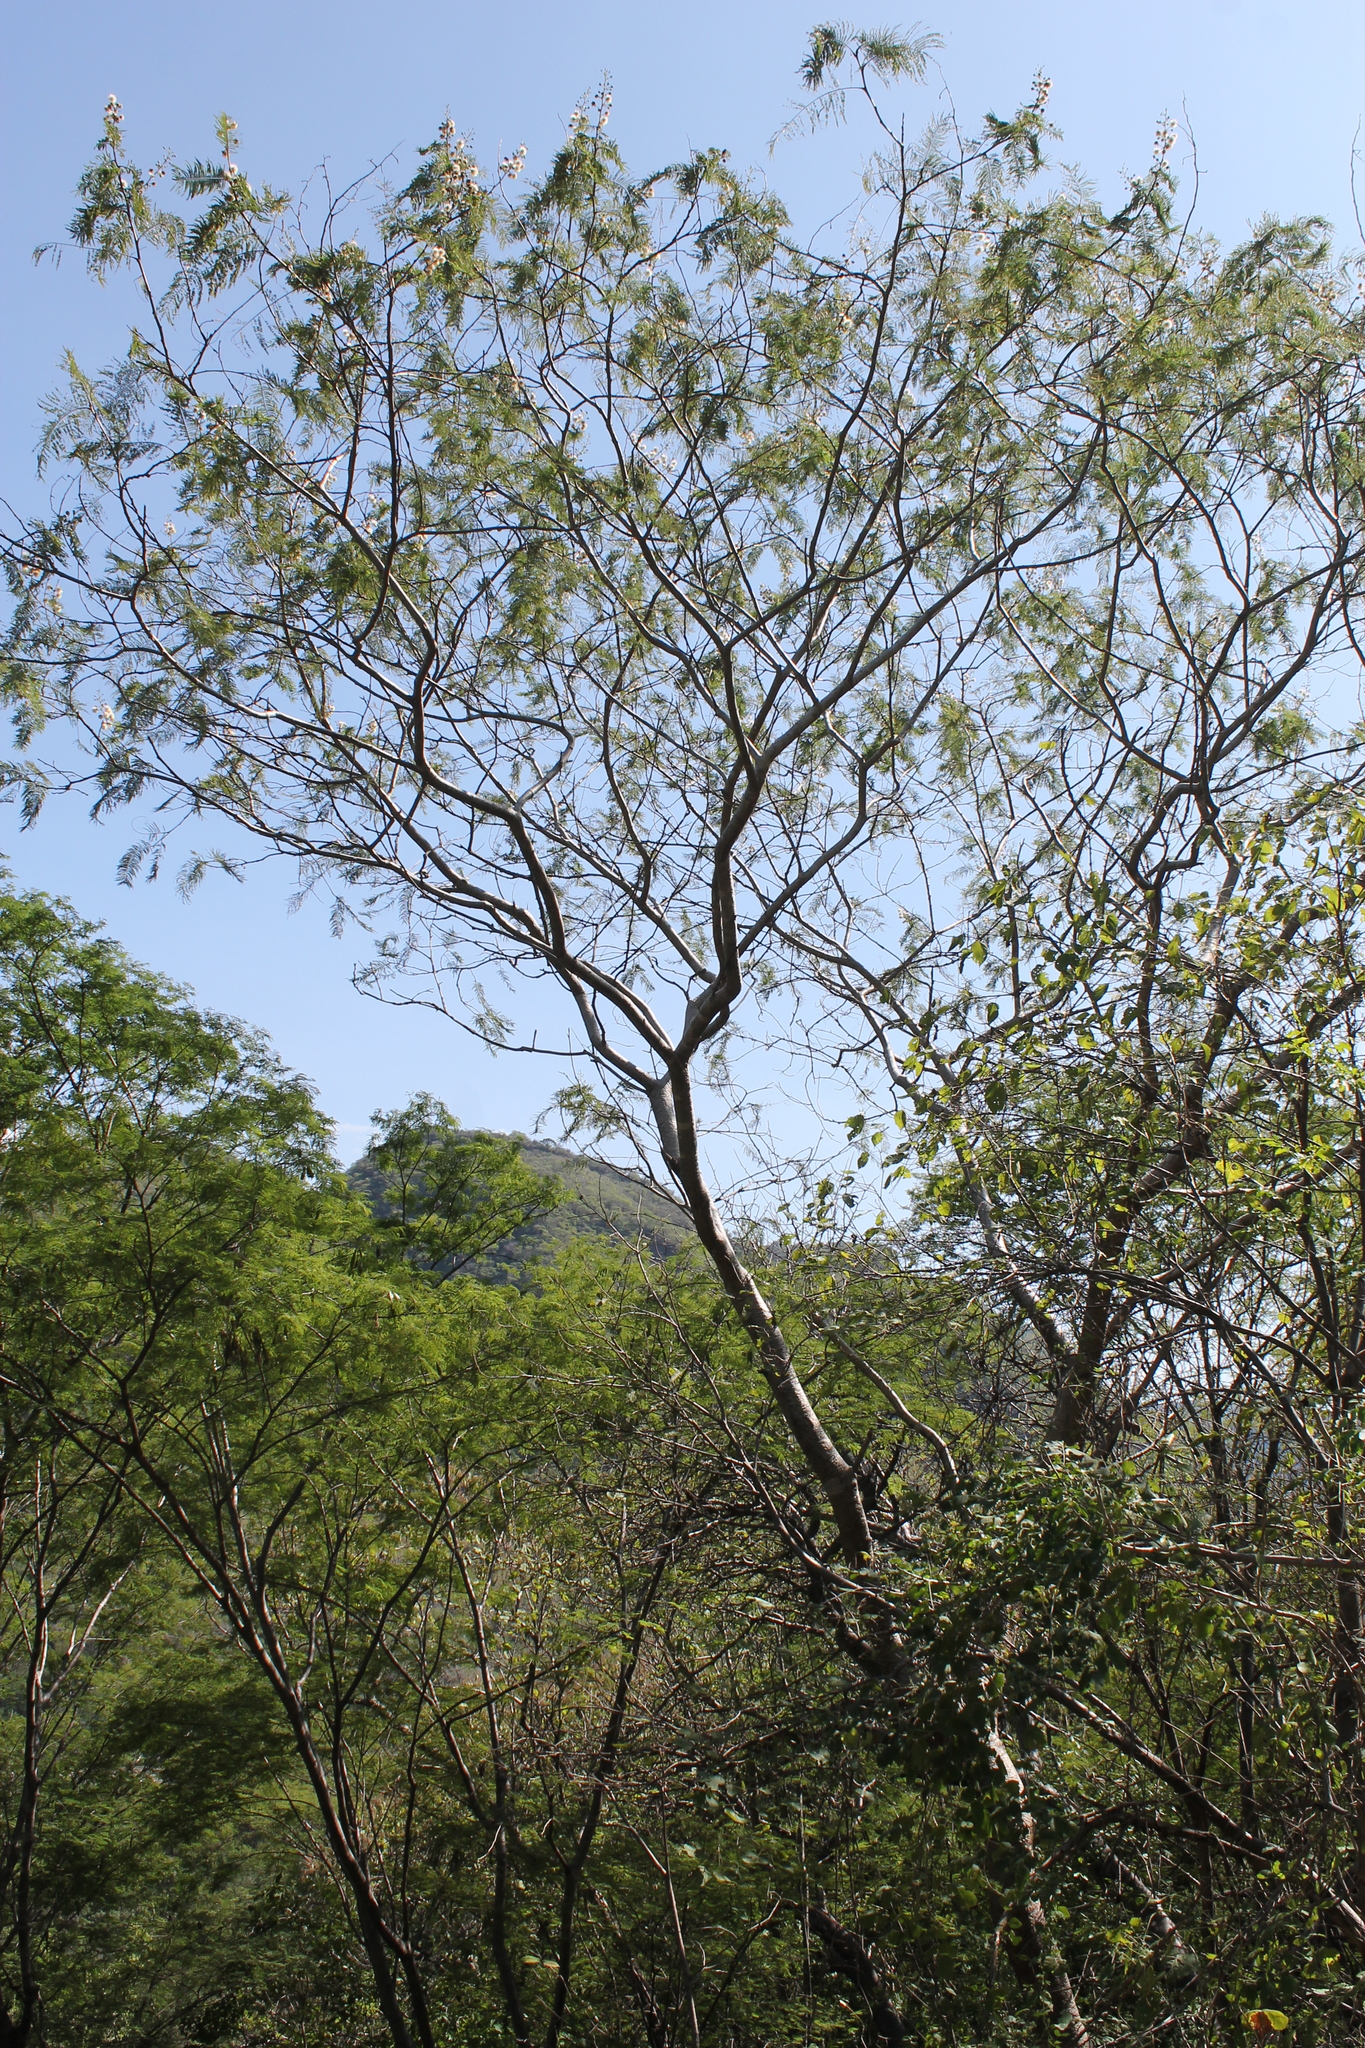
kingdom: Plantae
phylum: Tracheophyta
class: Magnoliopsida
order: Fabales
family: Fabaceae
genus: Leucaena
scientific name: Leucaena esculenta
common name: Guaje
